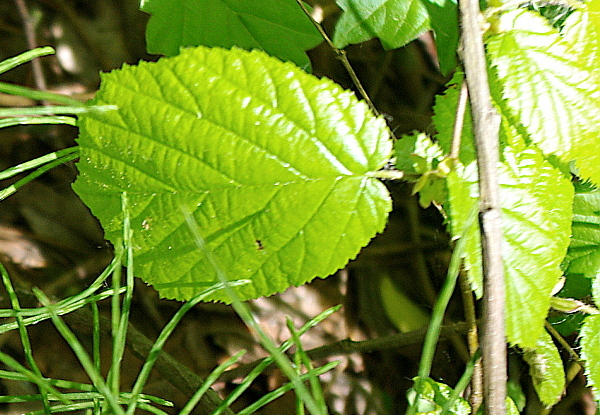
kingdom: Plantae
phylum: Tracheophyta
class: Magnoliopsida
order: Fagales
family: Betulaceae
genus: Corylus
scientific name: Corylus avellana
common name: European hazel
